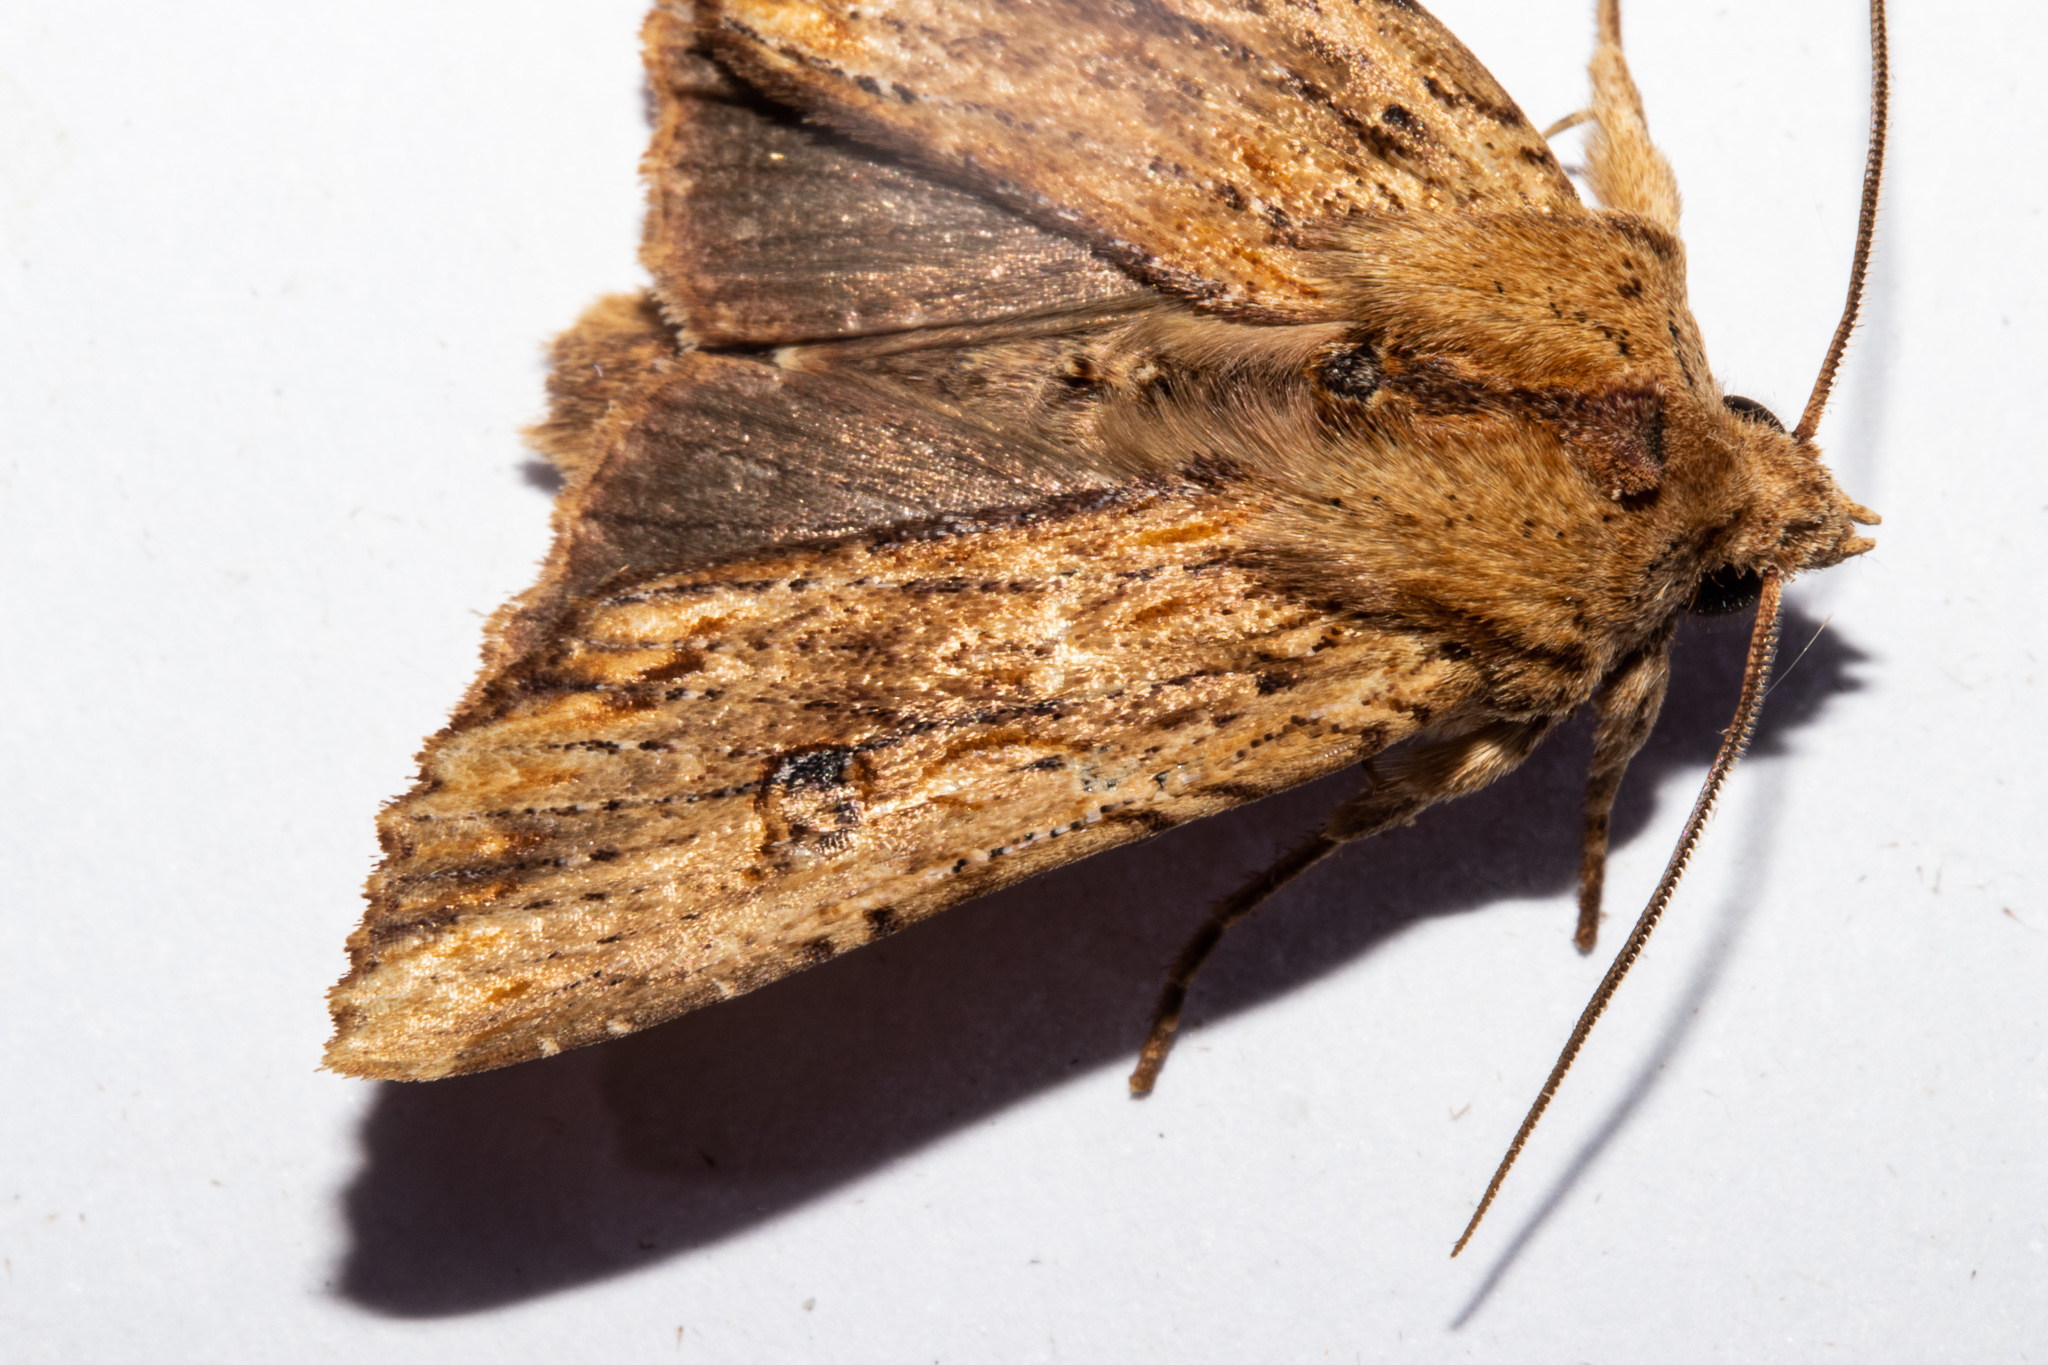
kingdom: Animalia
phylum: Arthropoda
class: Insecta
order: Lepidoptera
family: Noctuidae
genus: Ichneutica
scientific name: Ichneutica
